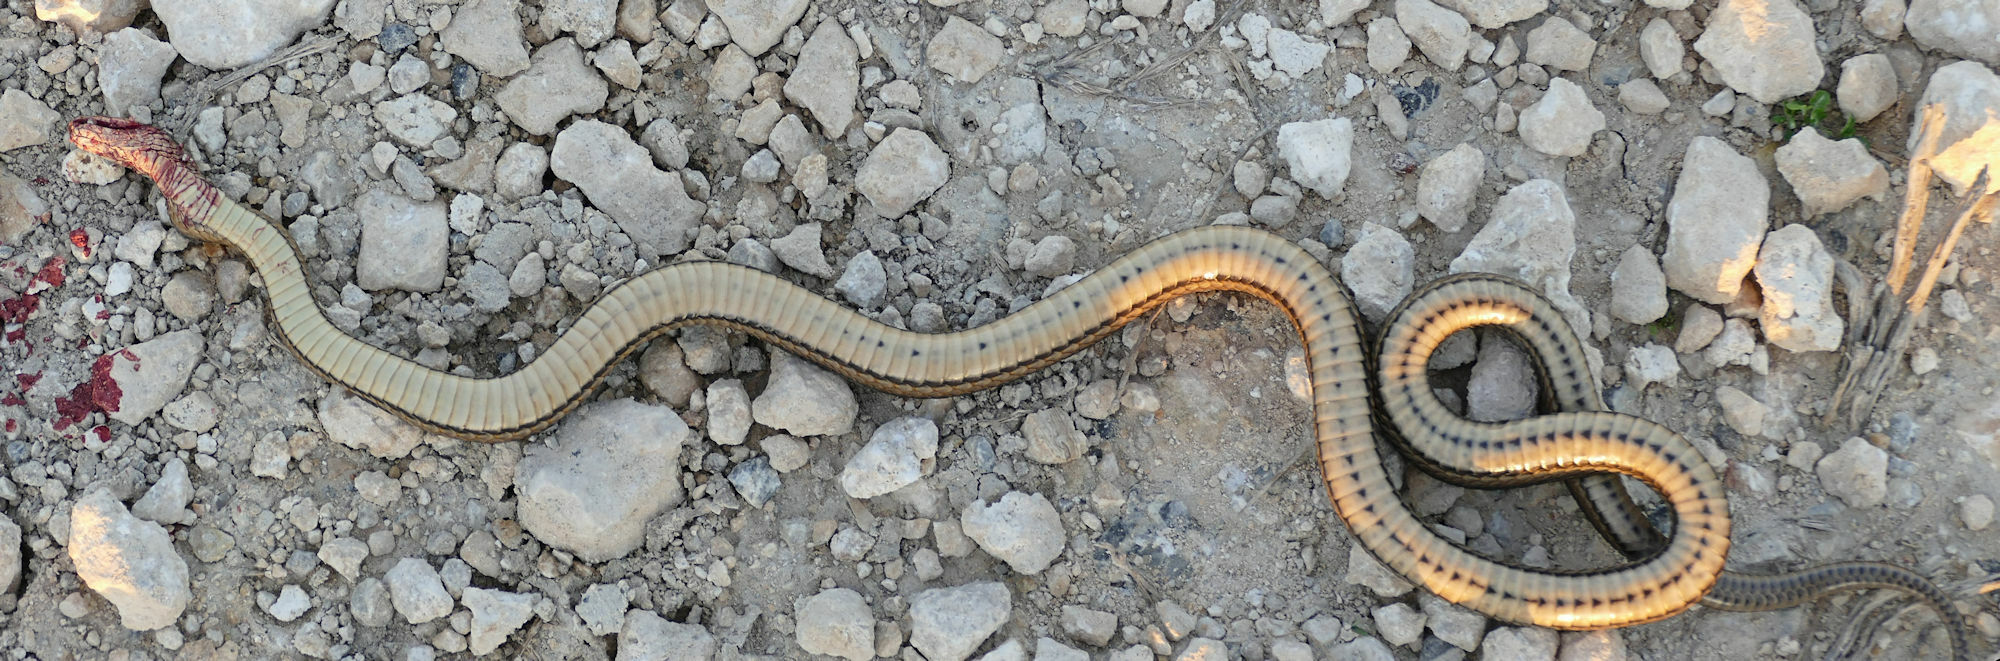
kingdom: Animalia
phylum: Chordata
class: Squamata
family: Colubridae
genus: Regina
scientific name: Regina grahamii
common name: Graham's crayfish snake
